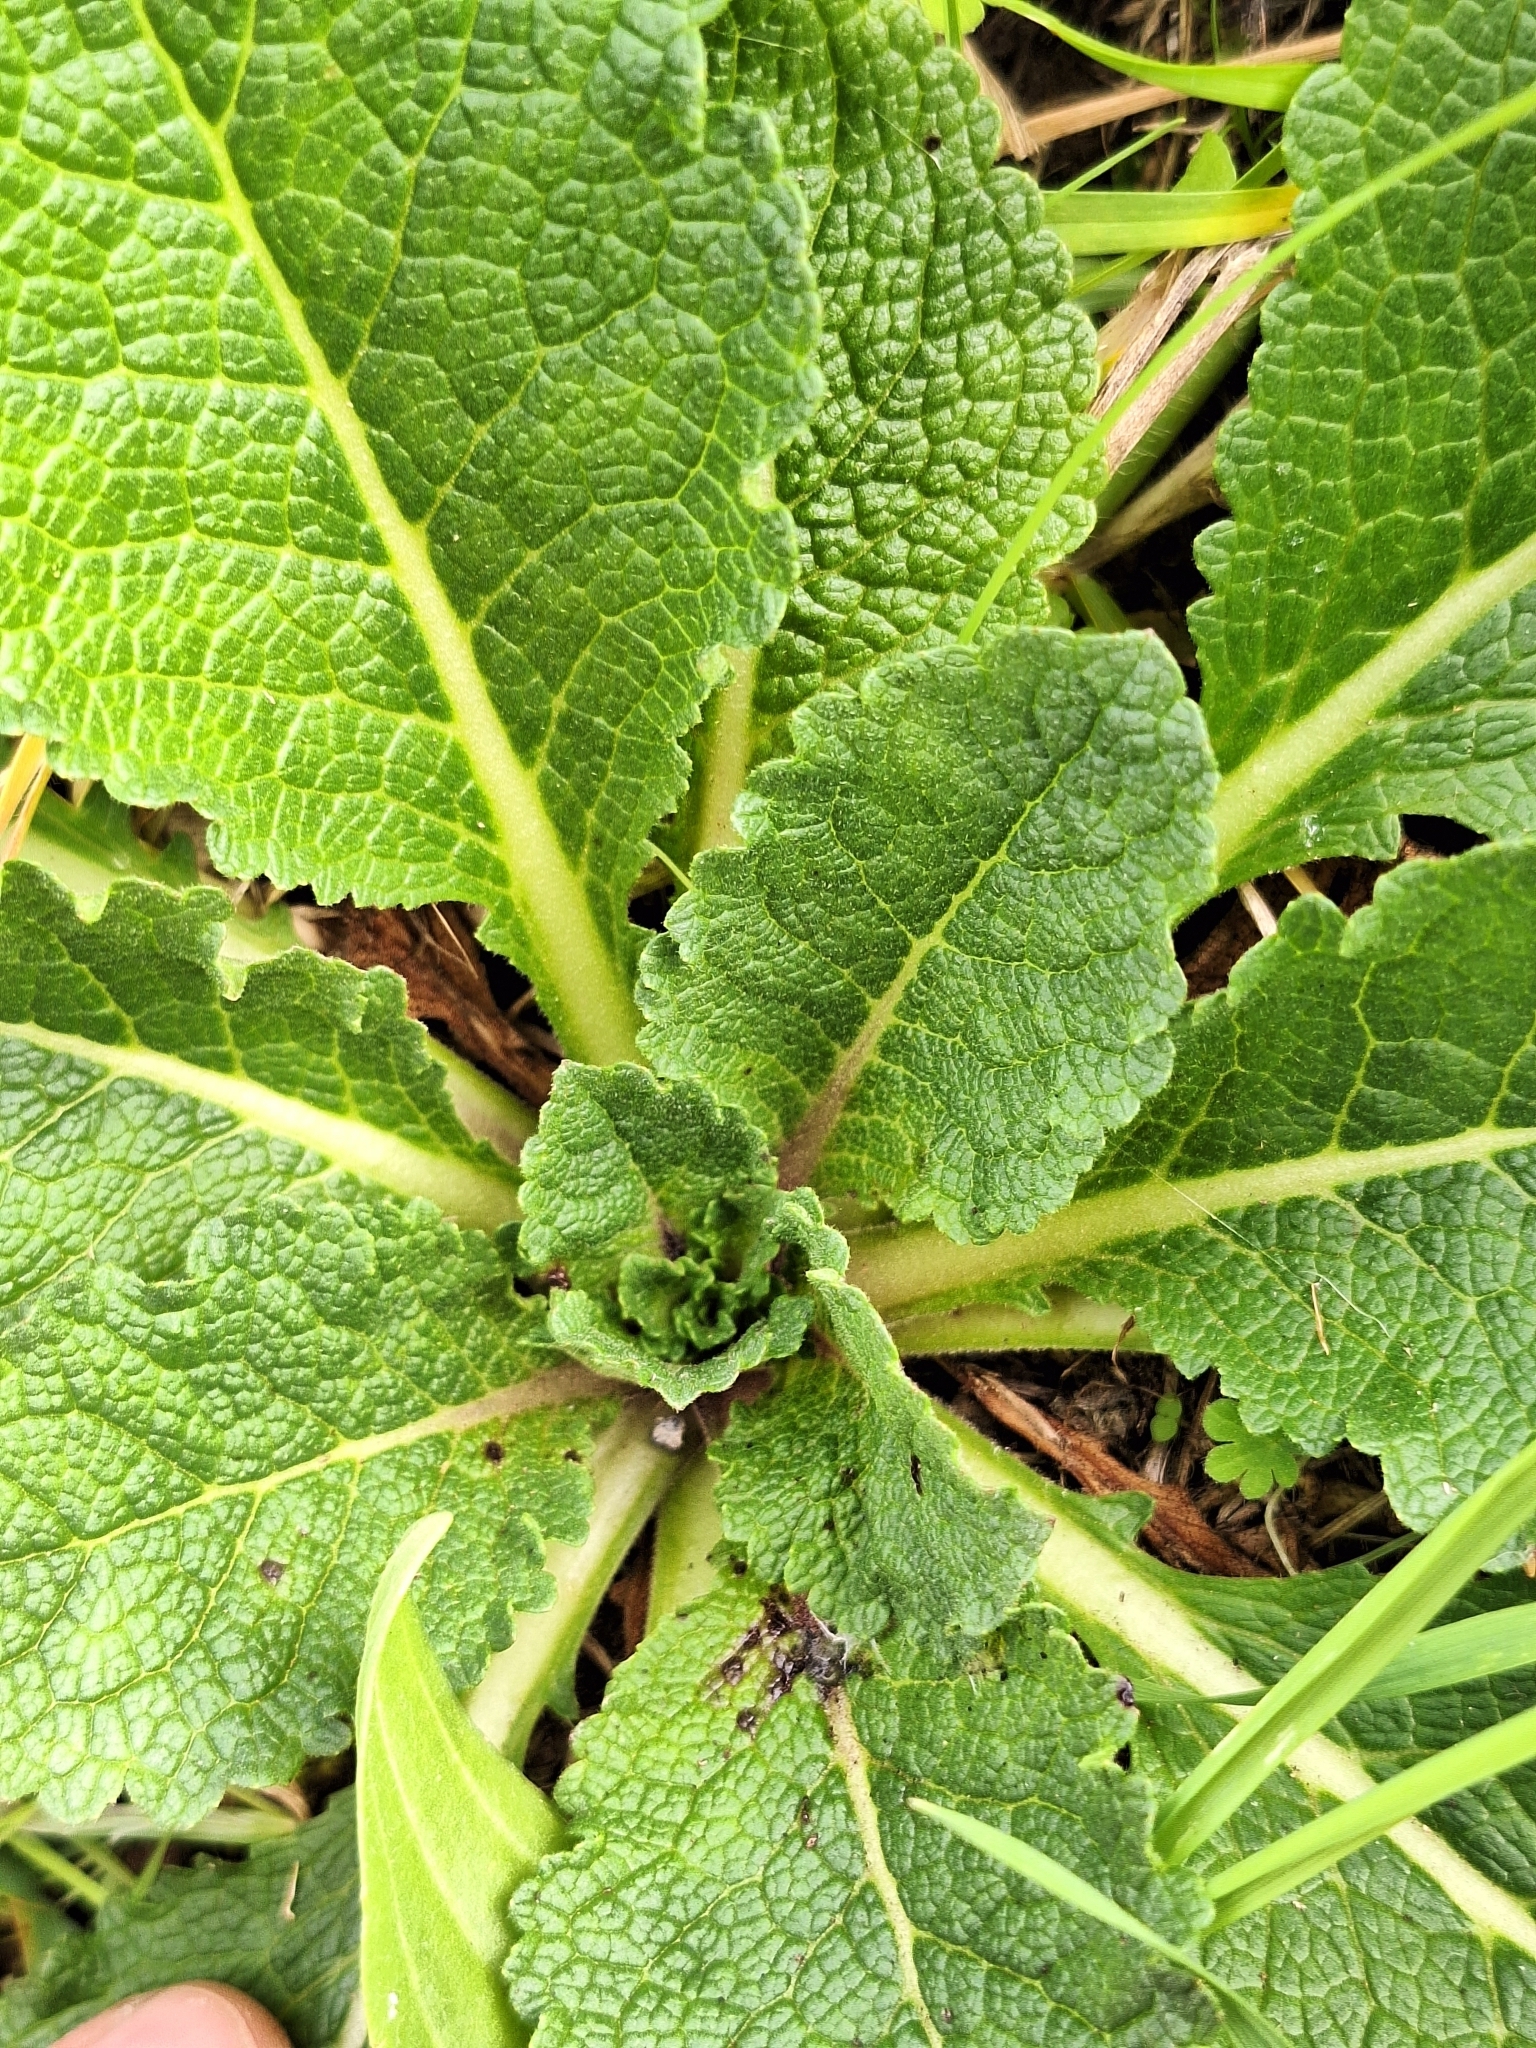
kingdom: Plantae
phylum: Tracheophyta
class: Magnoliopsida
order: Lamiales
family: Scrophulariaceae
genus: Verbascum
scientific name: Verbascum virgatum
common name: Twiggy mullein
